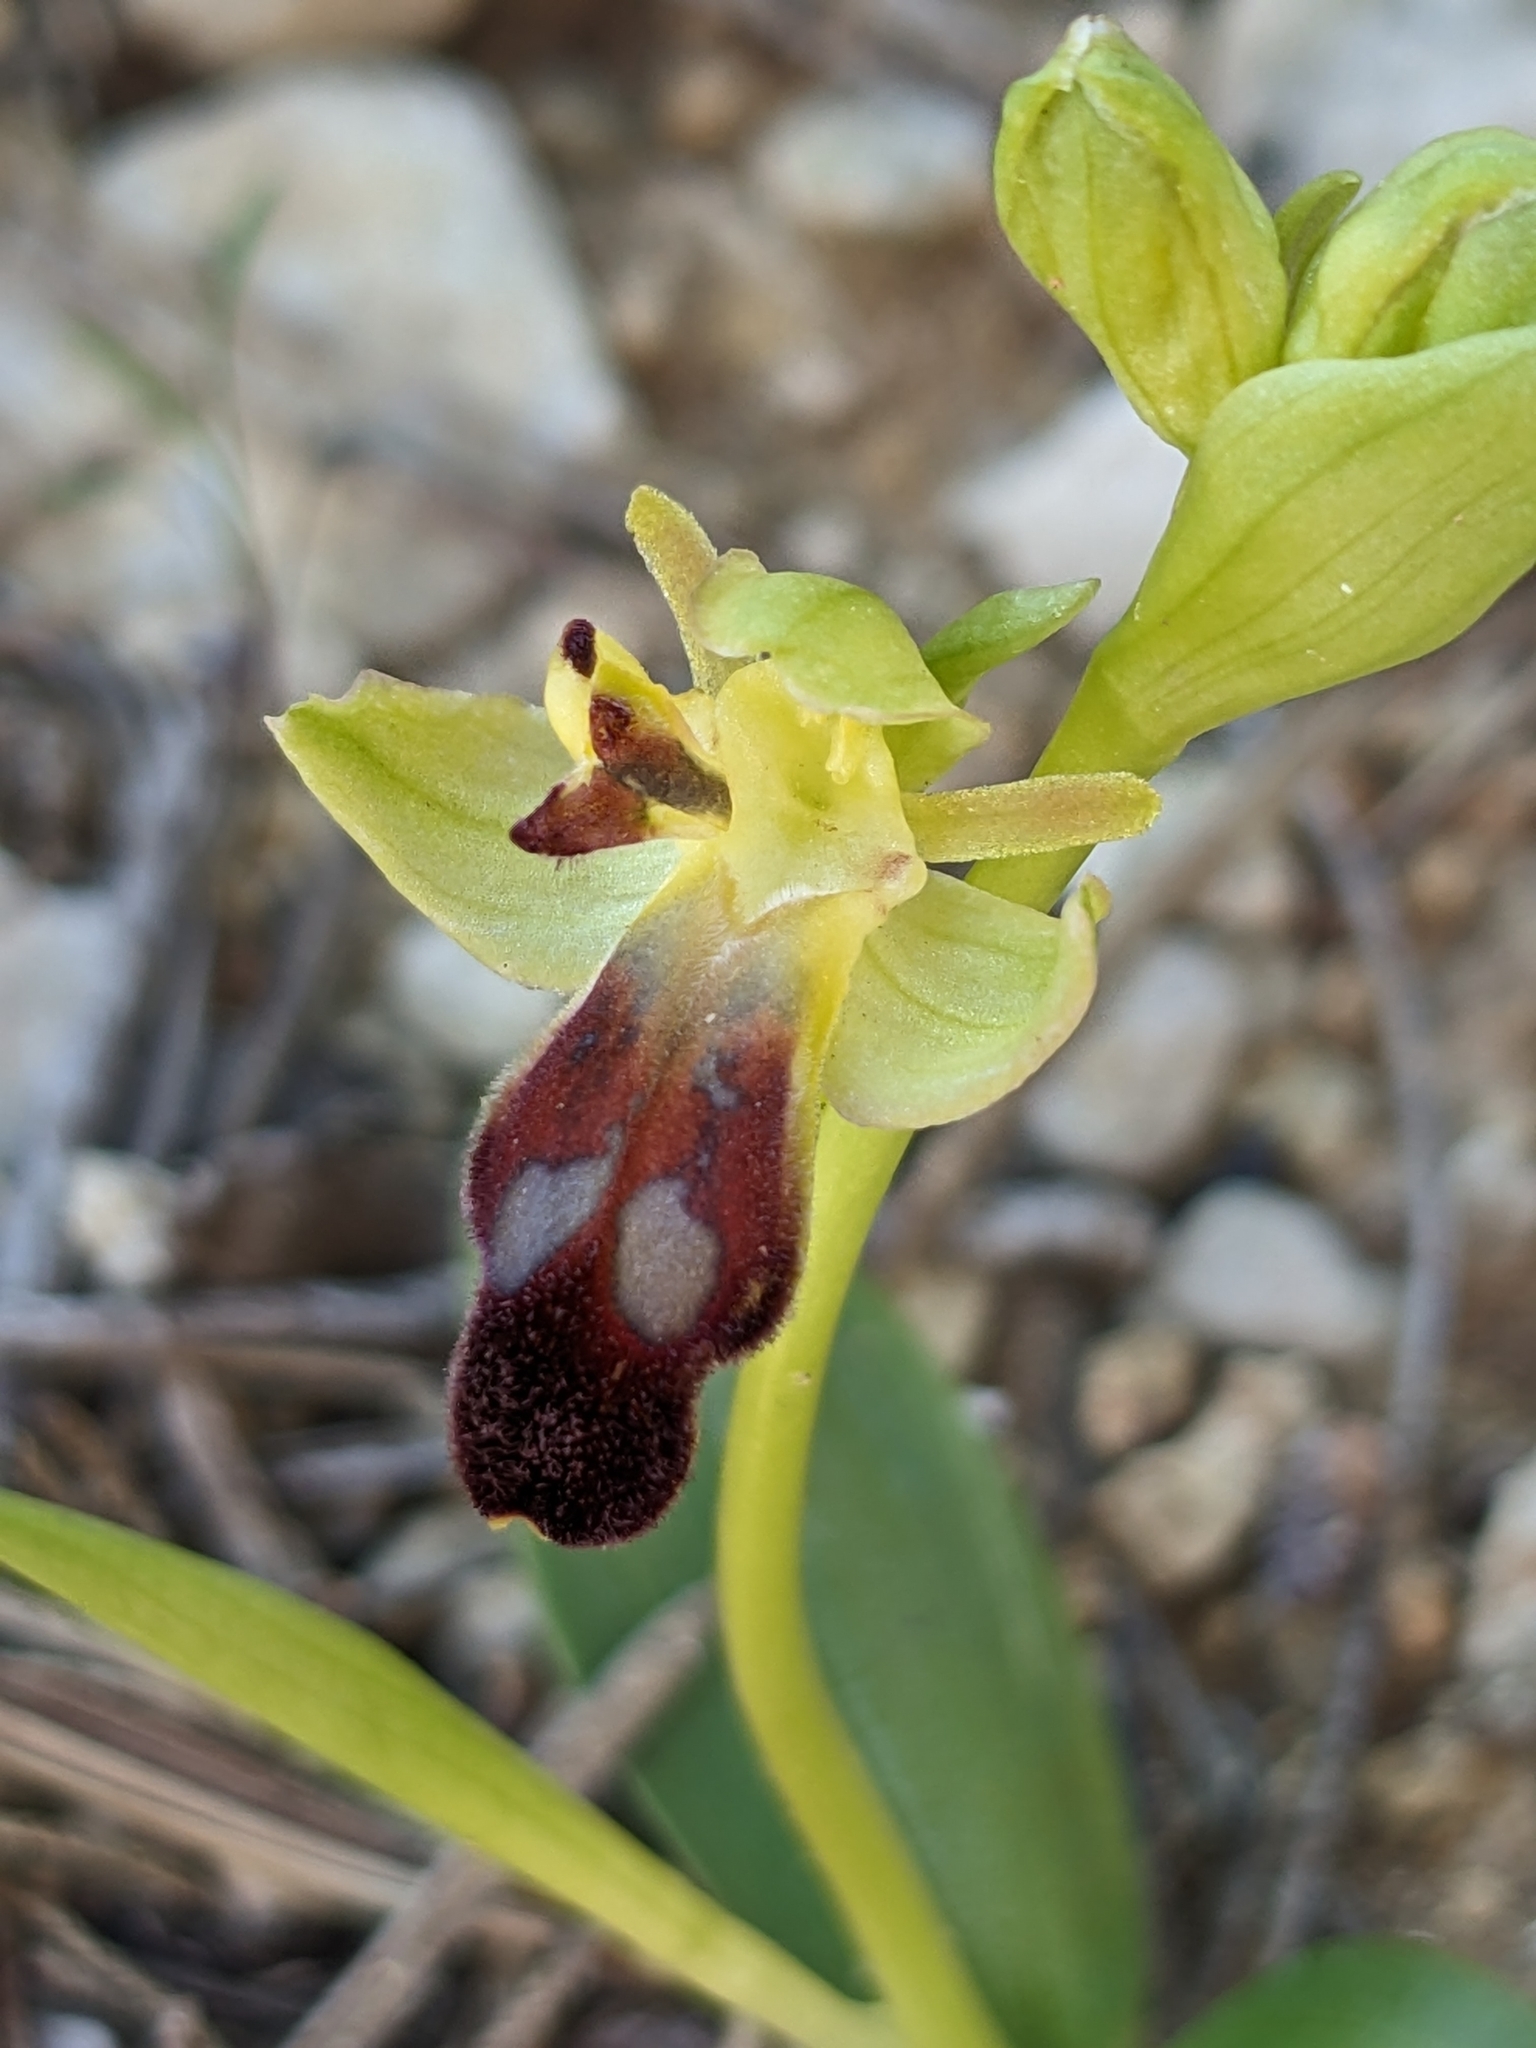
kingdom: Plantae
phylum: Tracheophyta
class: Liliopsida
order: Asparagales
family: Orchidaceae
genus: Ophrys
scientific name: Ophrys fusca
